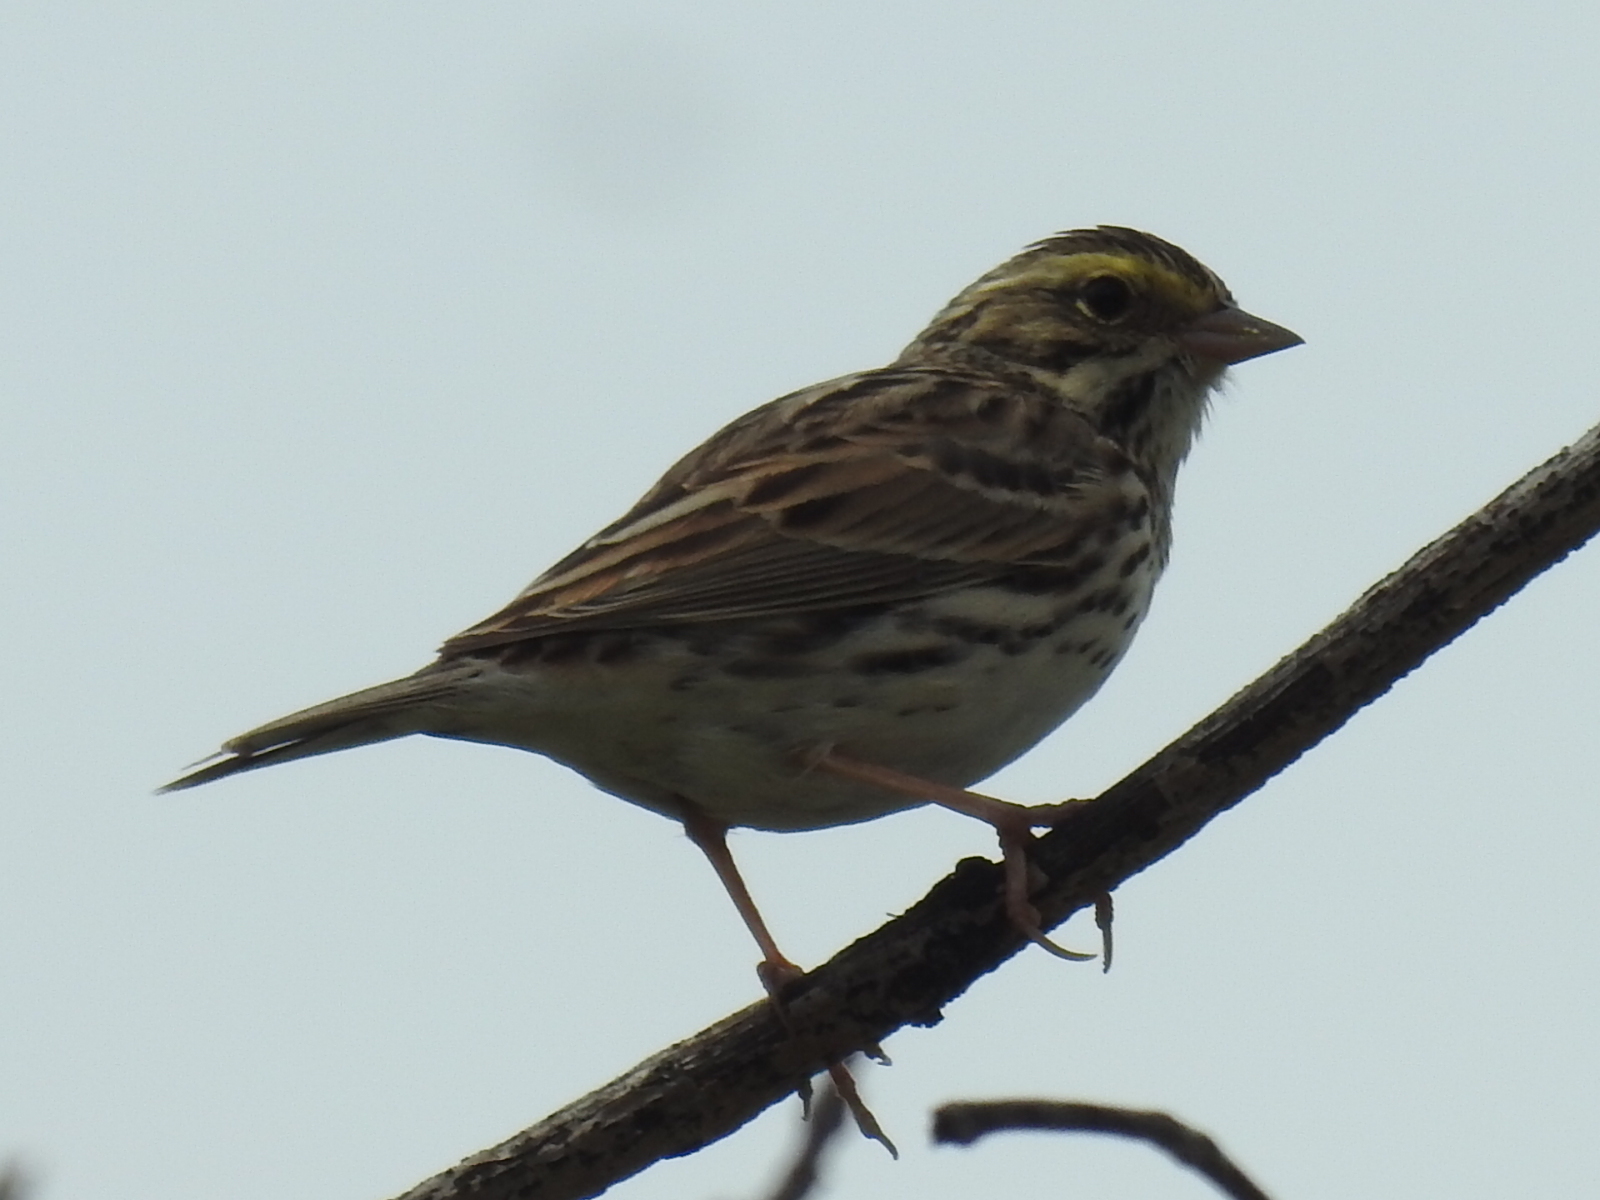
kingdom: Animalia
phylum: Chordata
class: Aves
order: Passeriformes
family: Passerellidae
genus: Passerculus
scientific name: Passerculus sandwichensis
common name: Savannah sparrow
